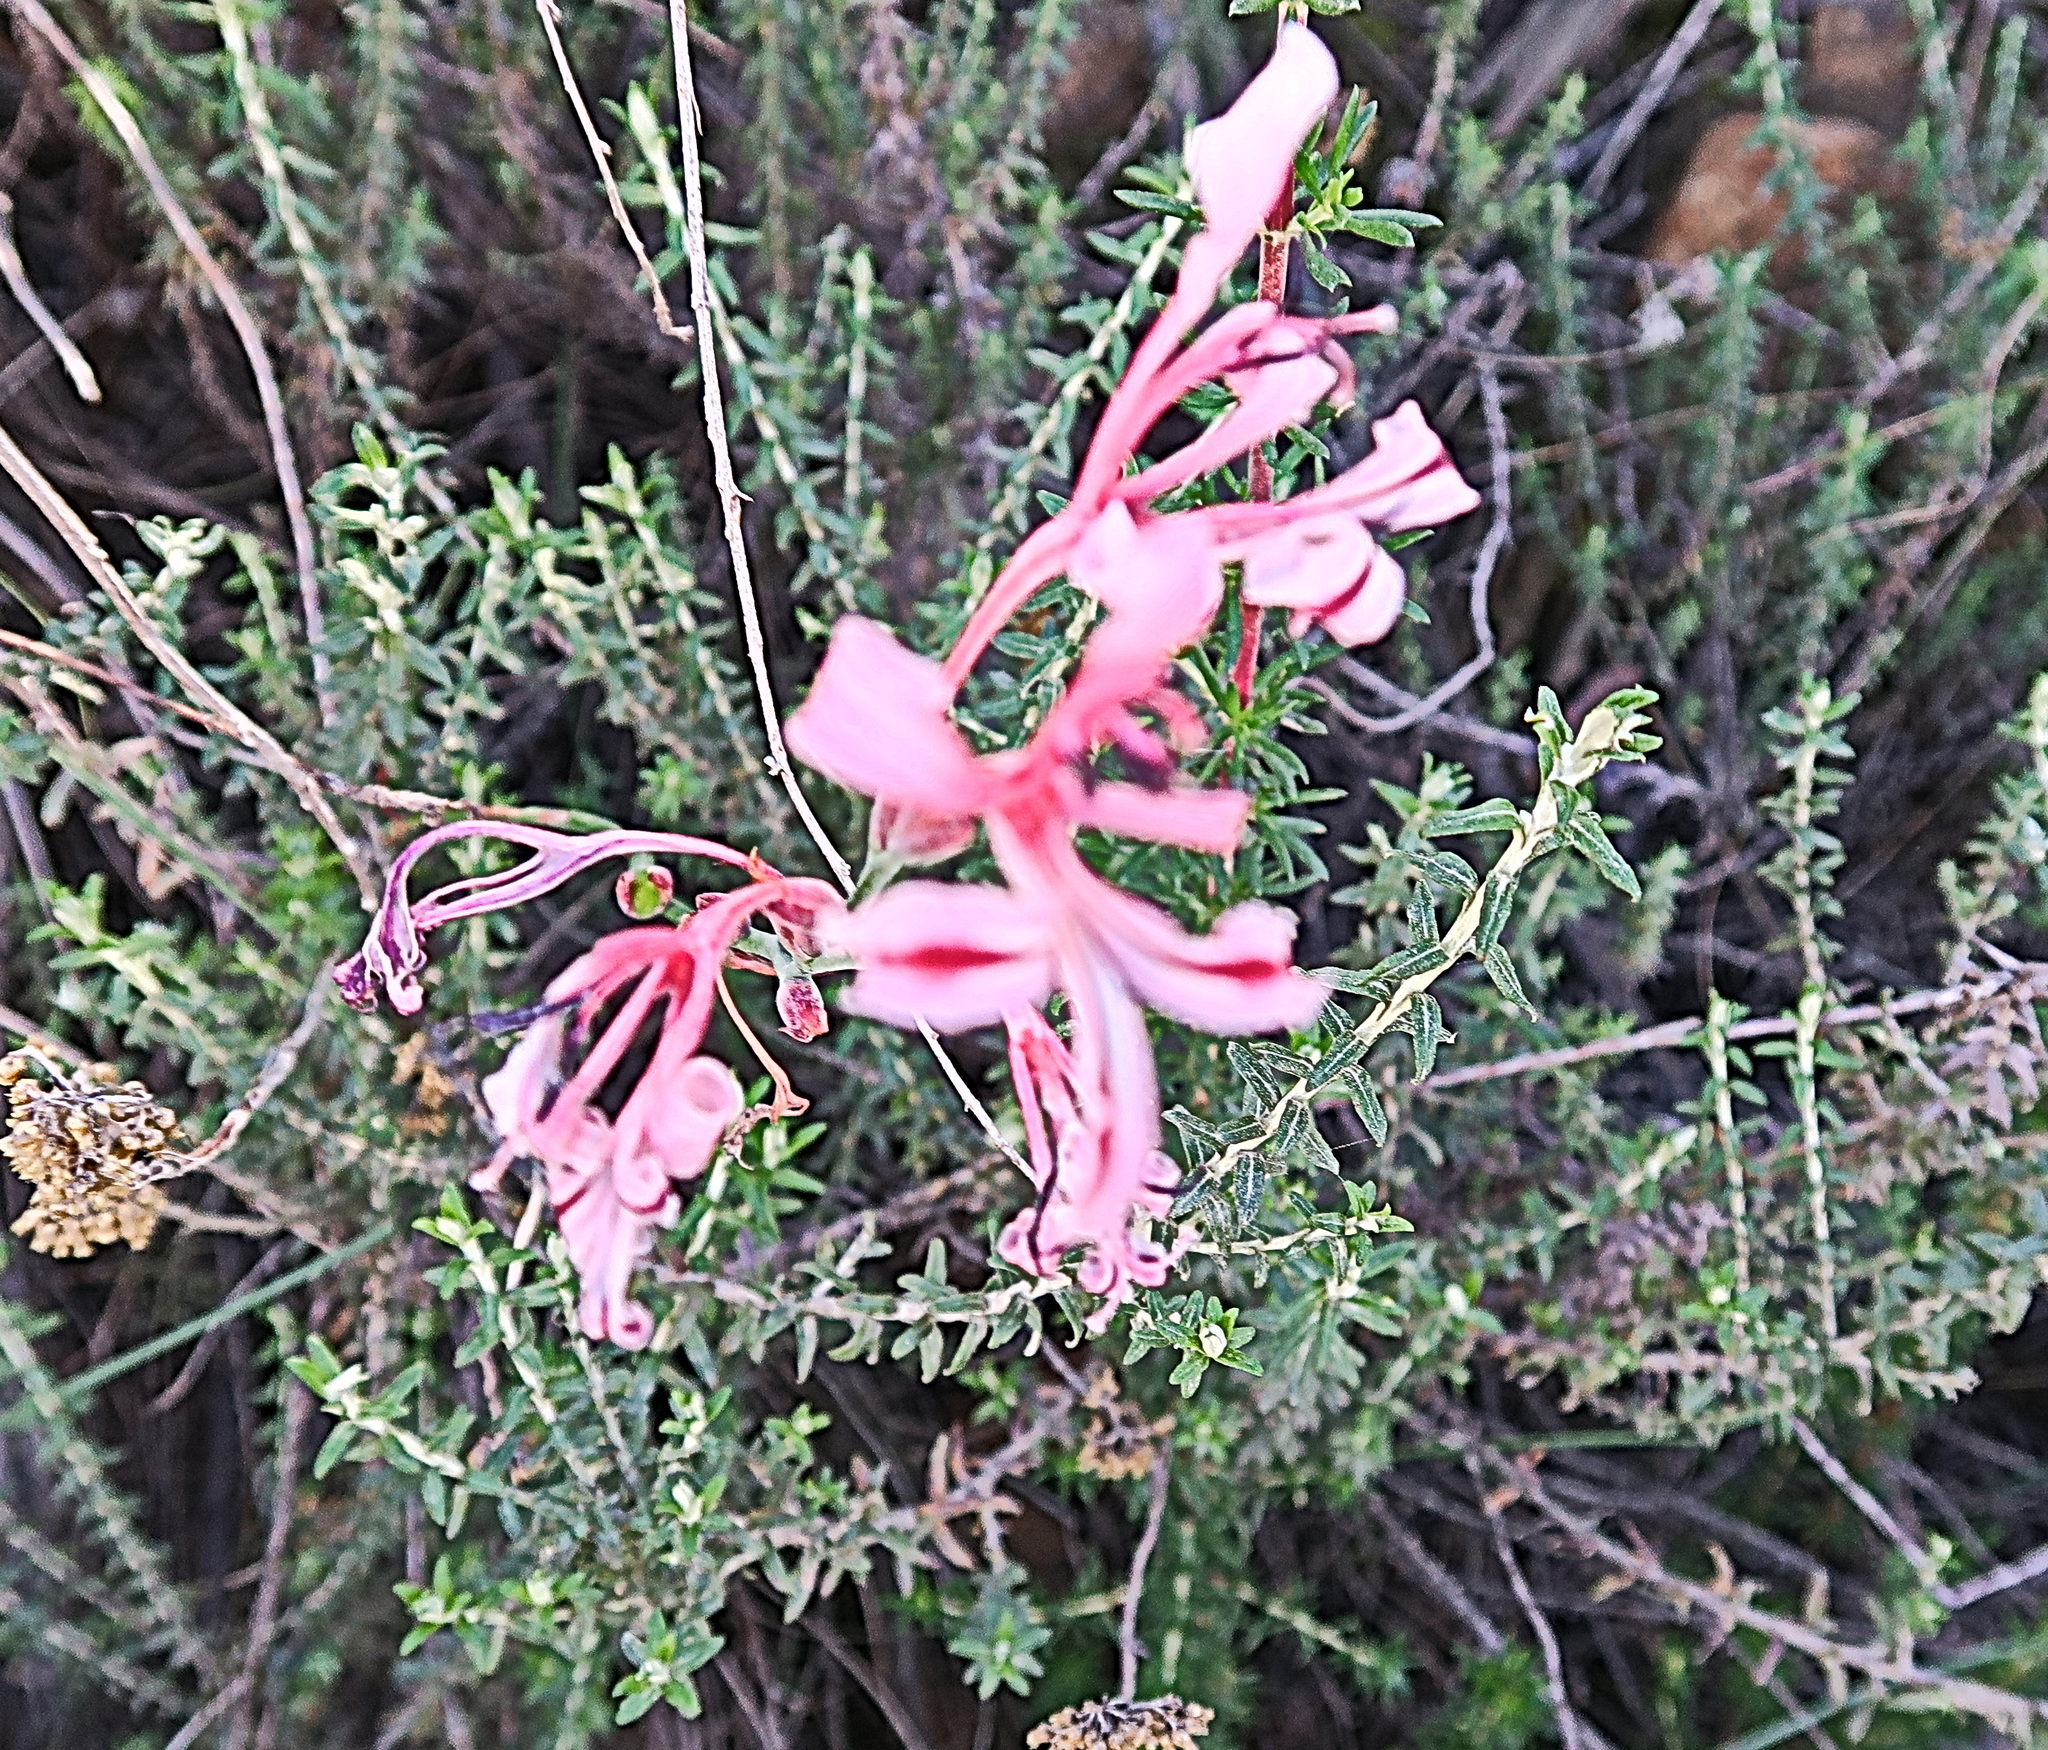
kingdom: Plantae
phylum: Tracheophyta
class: Liliopsida
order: Asparagales
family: Iridaceae
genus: Tritoniopsis
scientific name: Tritoniopsis revoluta
